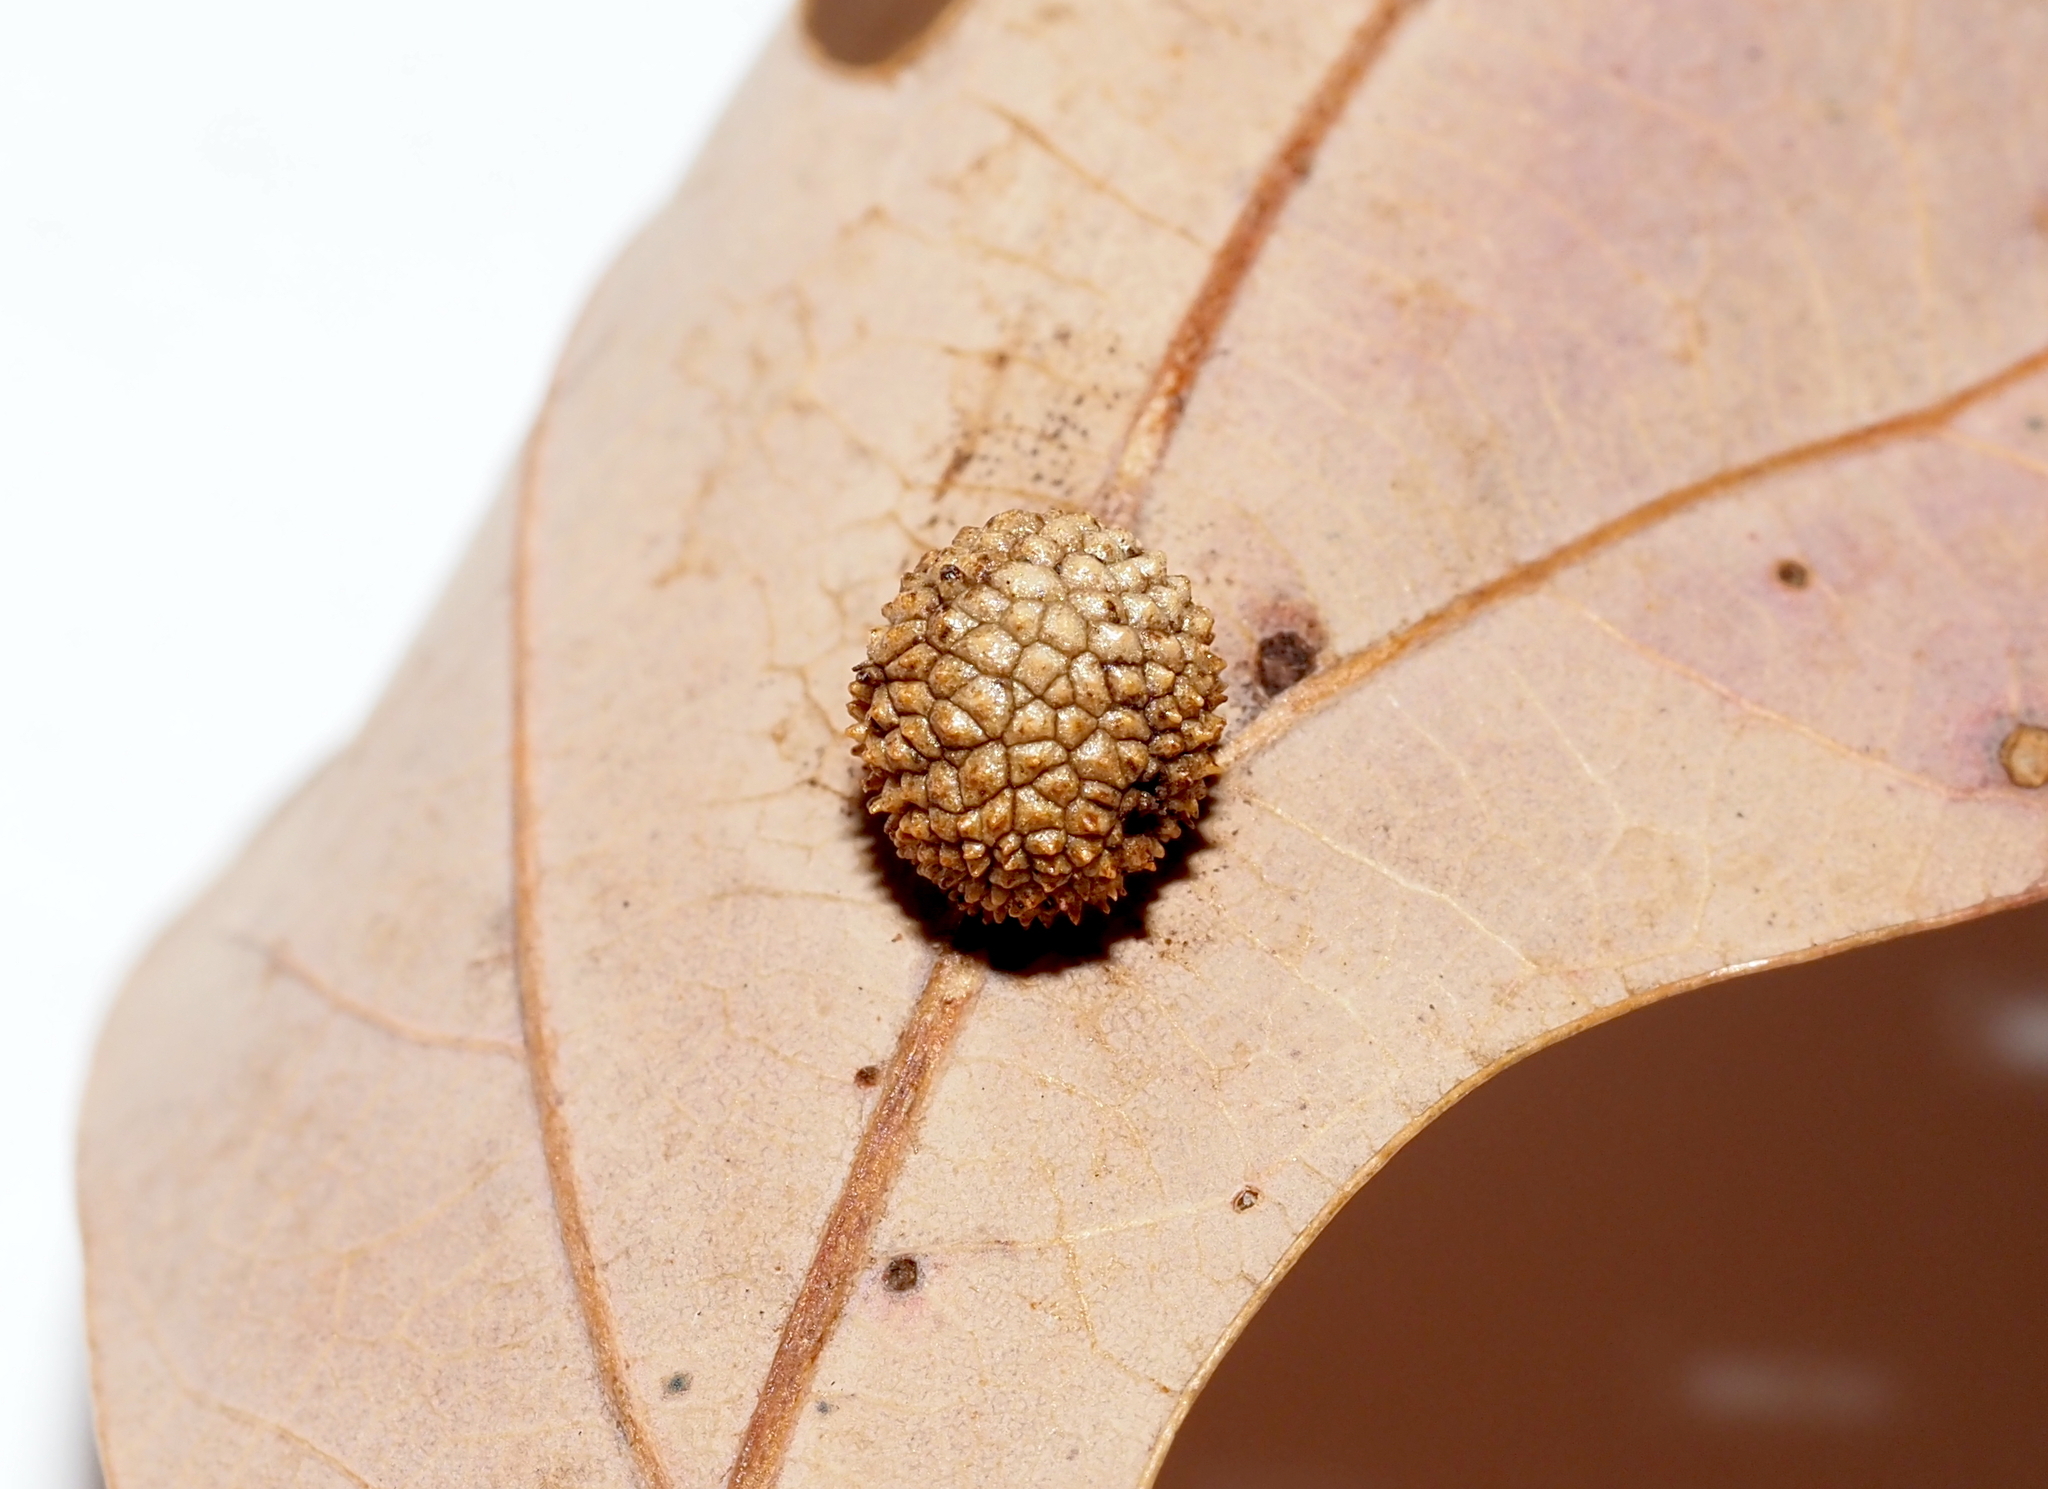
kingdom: Animalia
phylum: Arthropoda
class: Insecta
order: Hymenoptera
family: Cynipidae
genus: Acraspis
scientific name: Acraspis
